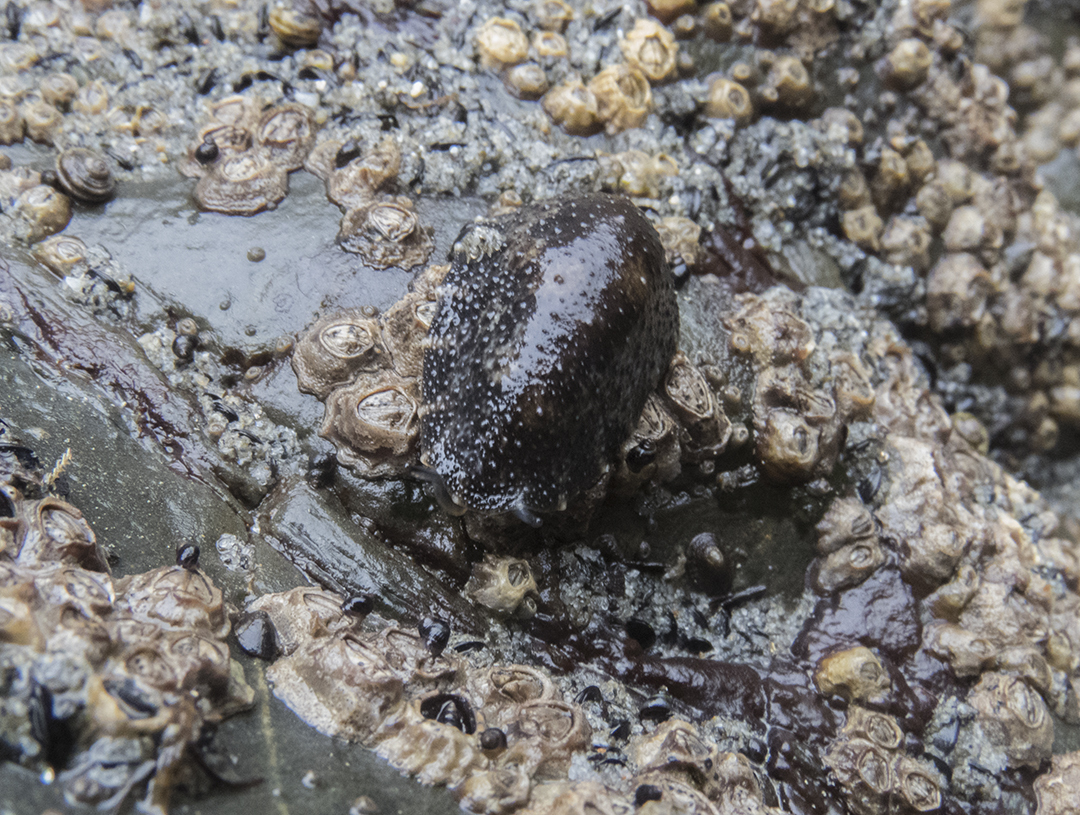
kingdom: Animalia
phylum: Mollusca
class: Gastropoda
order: Systellommatophora
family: Onchidiidae
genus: Onchidella
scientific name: Onchidella nigricans
